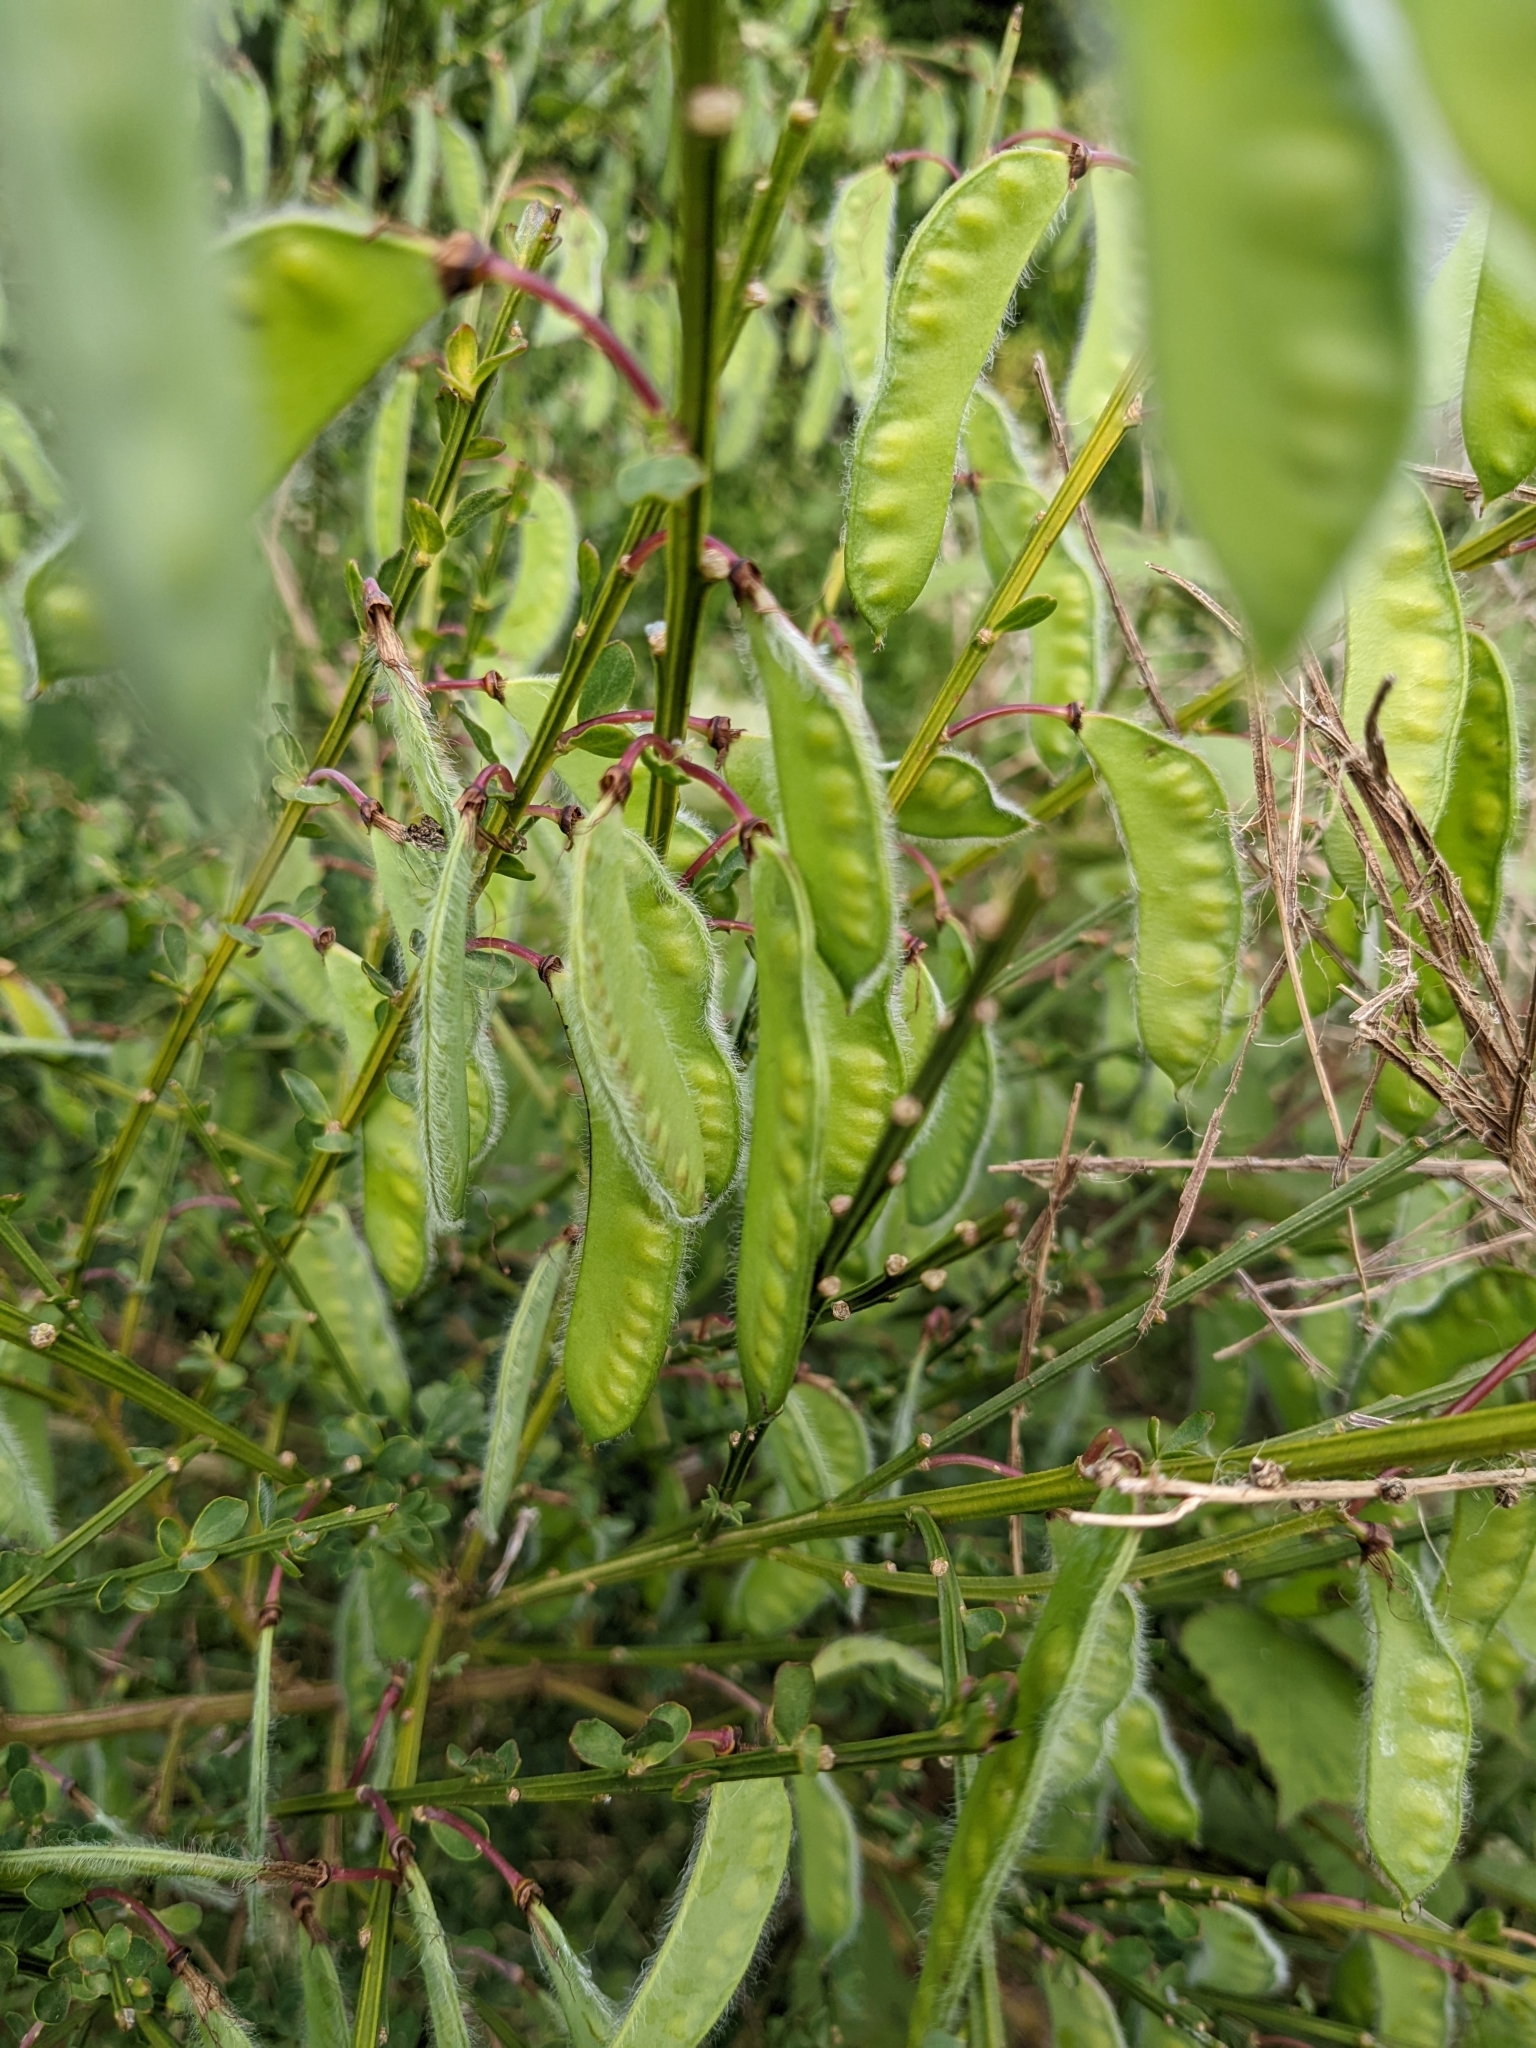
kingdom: Plantae
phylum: Tracheophyta
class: Magnoliopsida
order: Fabales
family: Fabaceae
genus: Cytisus
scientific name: Cytisus scoparius
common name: Scotch broom
